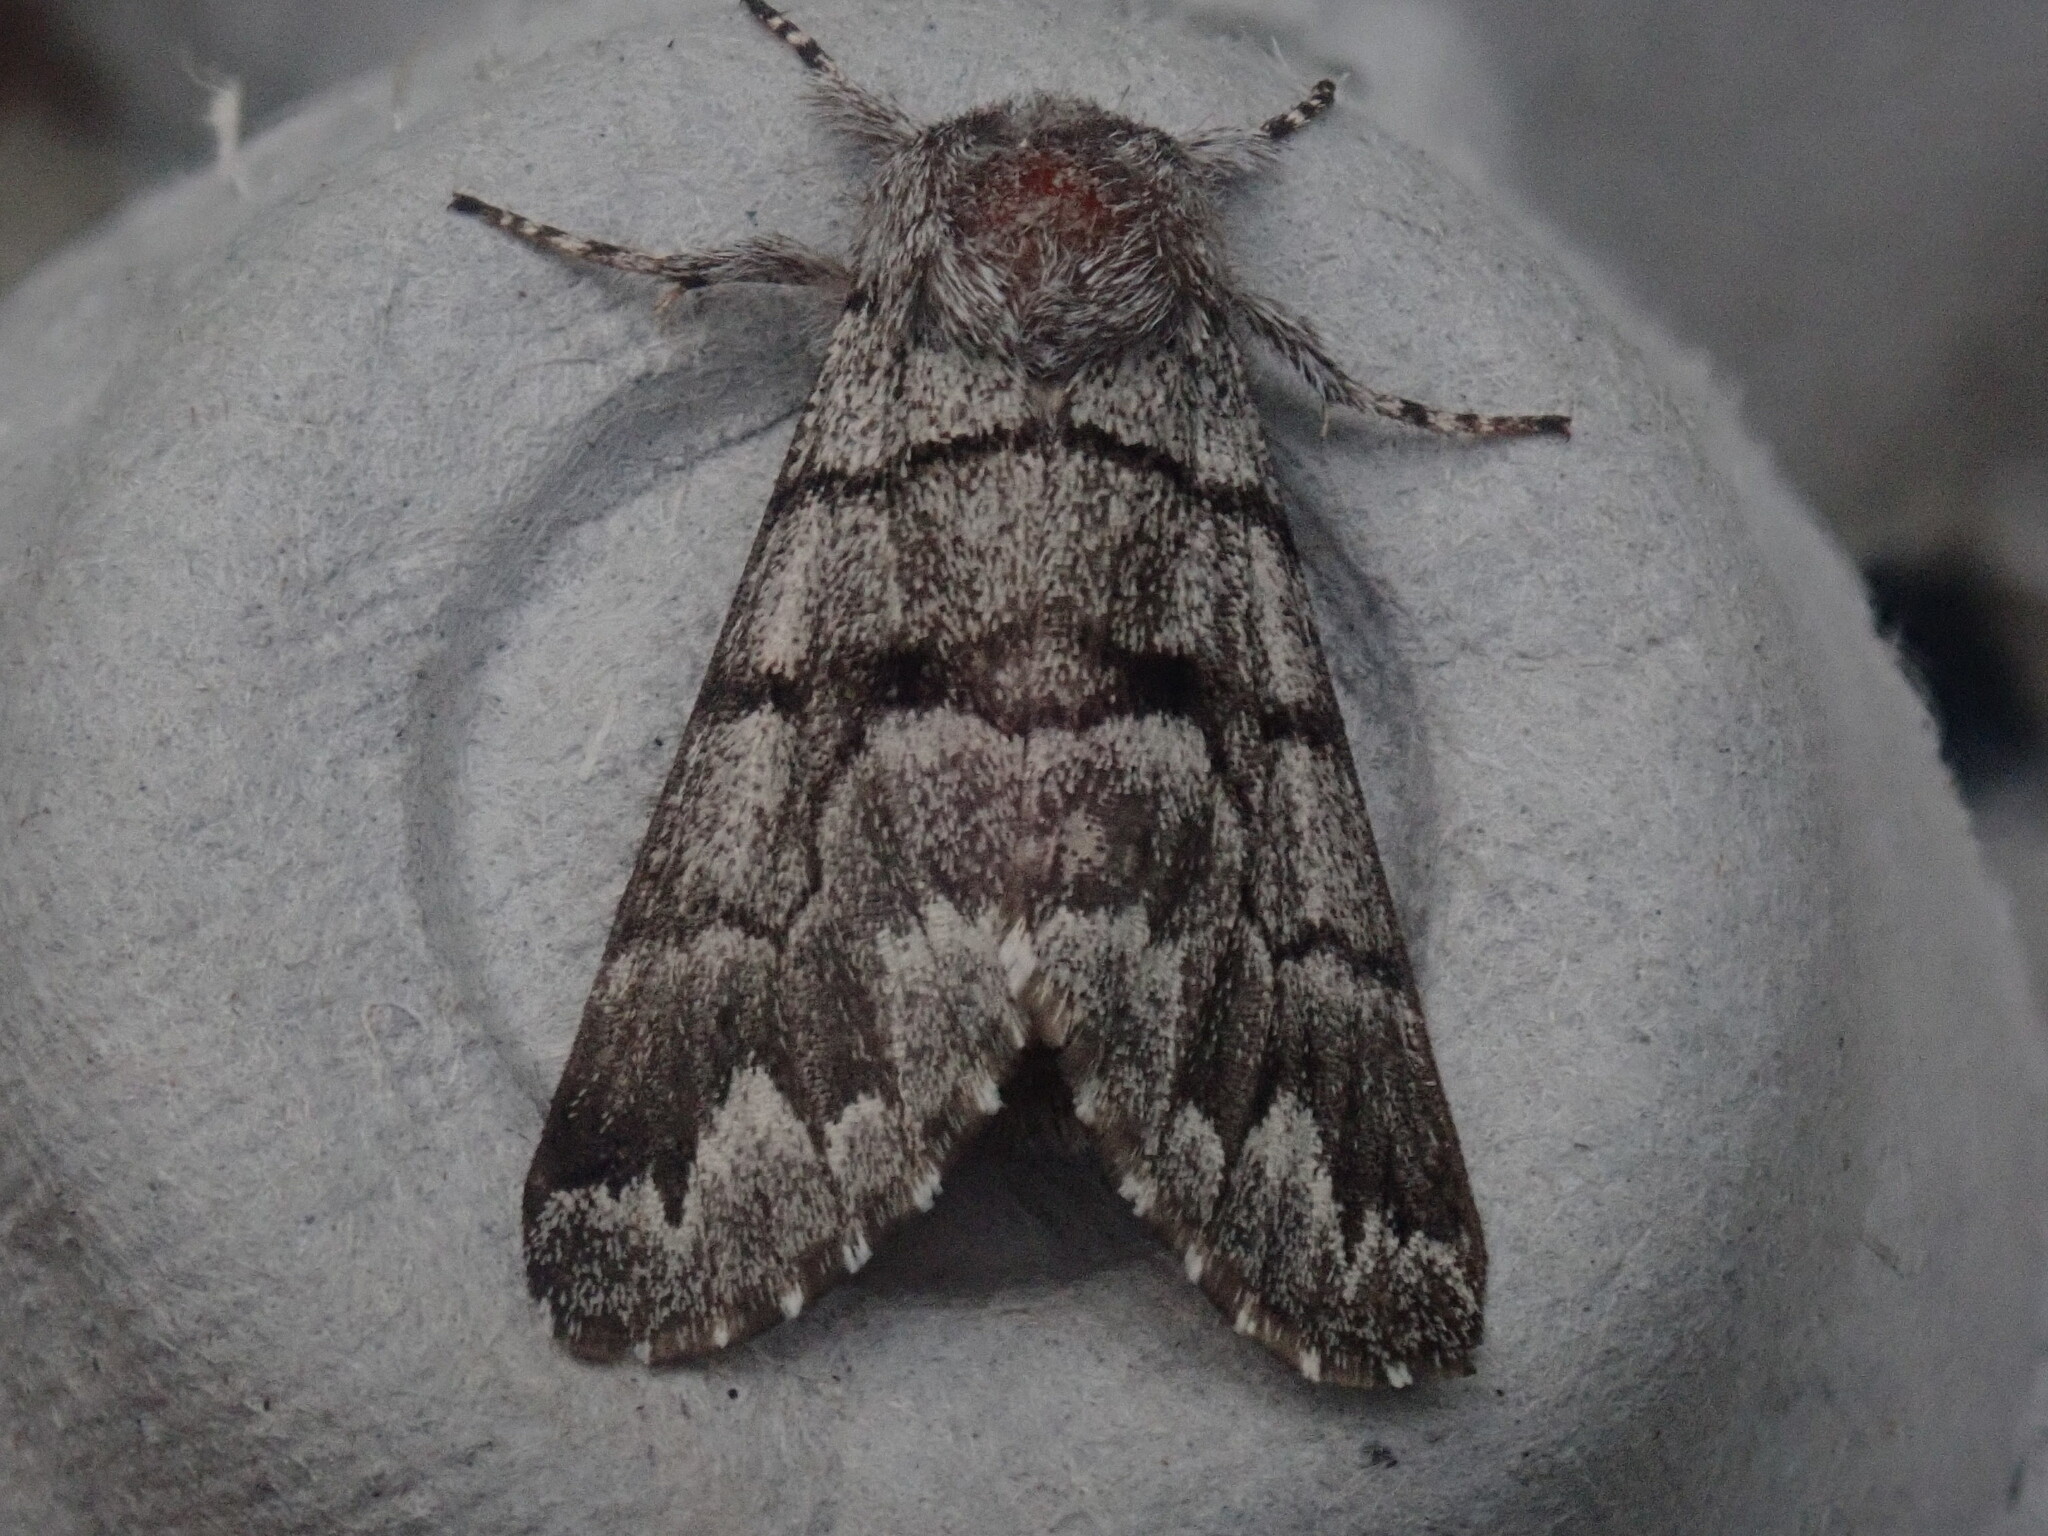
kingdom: Animalia
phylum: Arthropoda
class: Insecta
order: Lepidoptera
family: Noctuidae
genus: Panthea
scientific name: Panthea furcilla
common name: Eastern panthea moth
